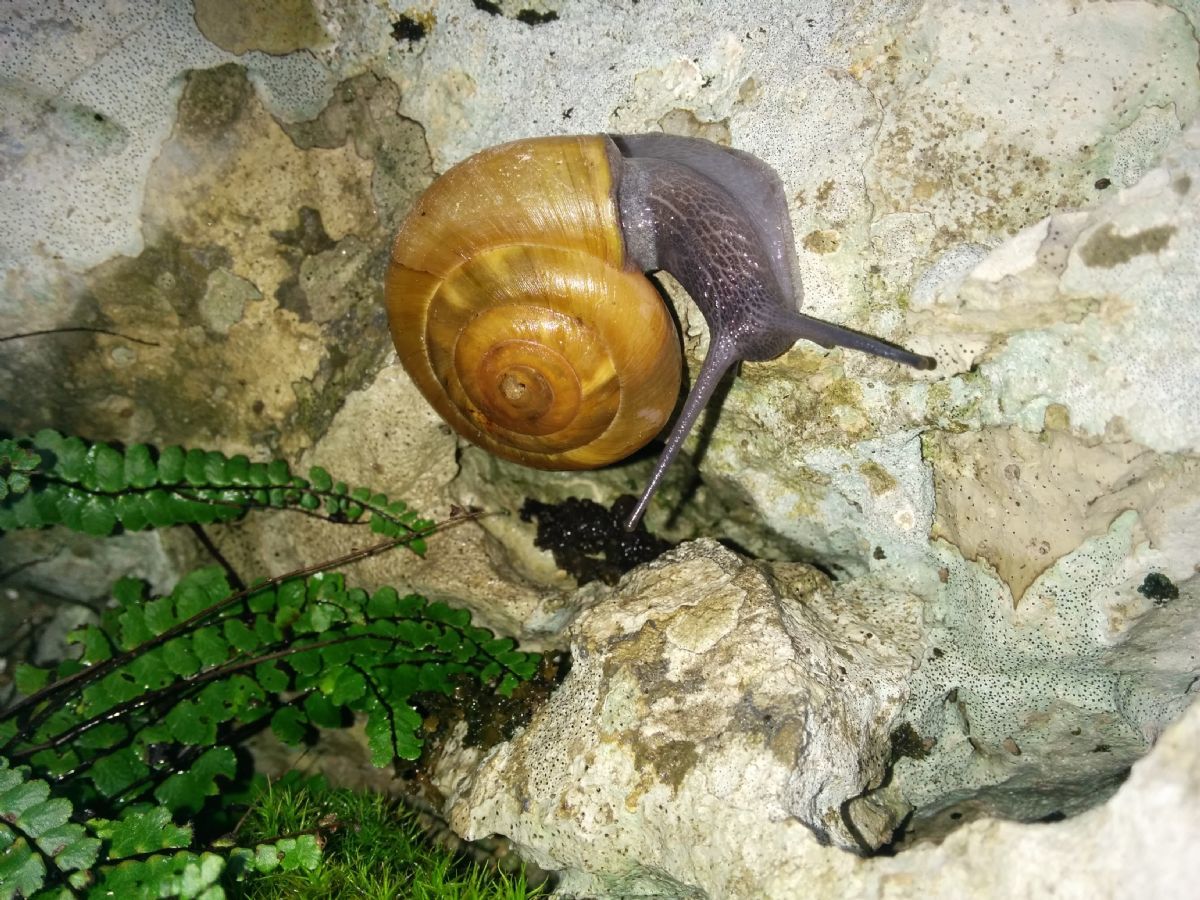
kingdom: Animalia
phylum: Mollusca
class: Gastropoda
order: Stylommatophora
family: Zonitidae
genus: Zonites
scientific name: Zonites algirus
